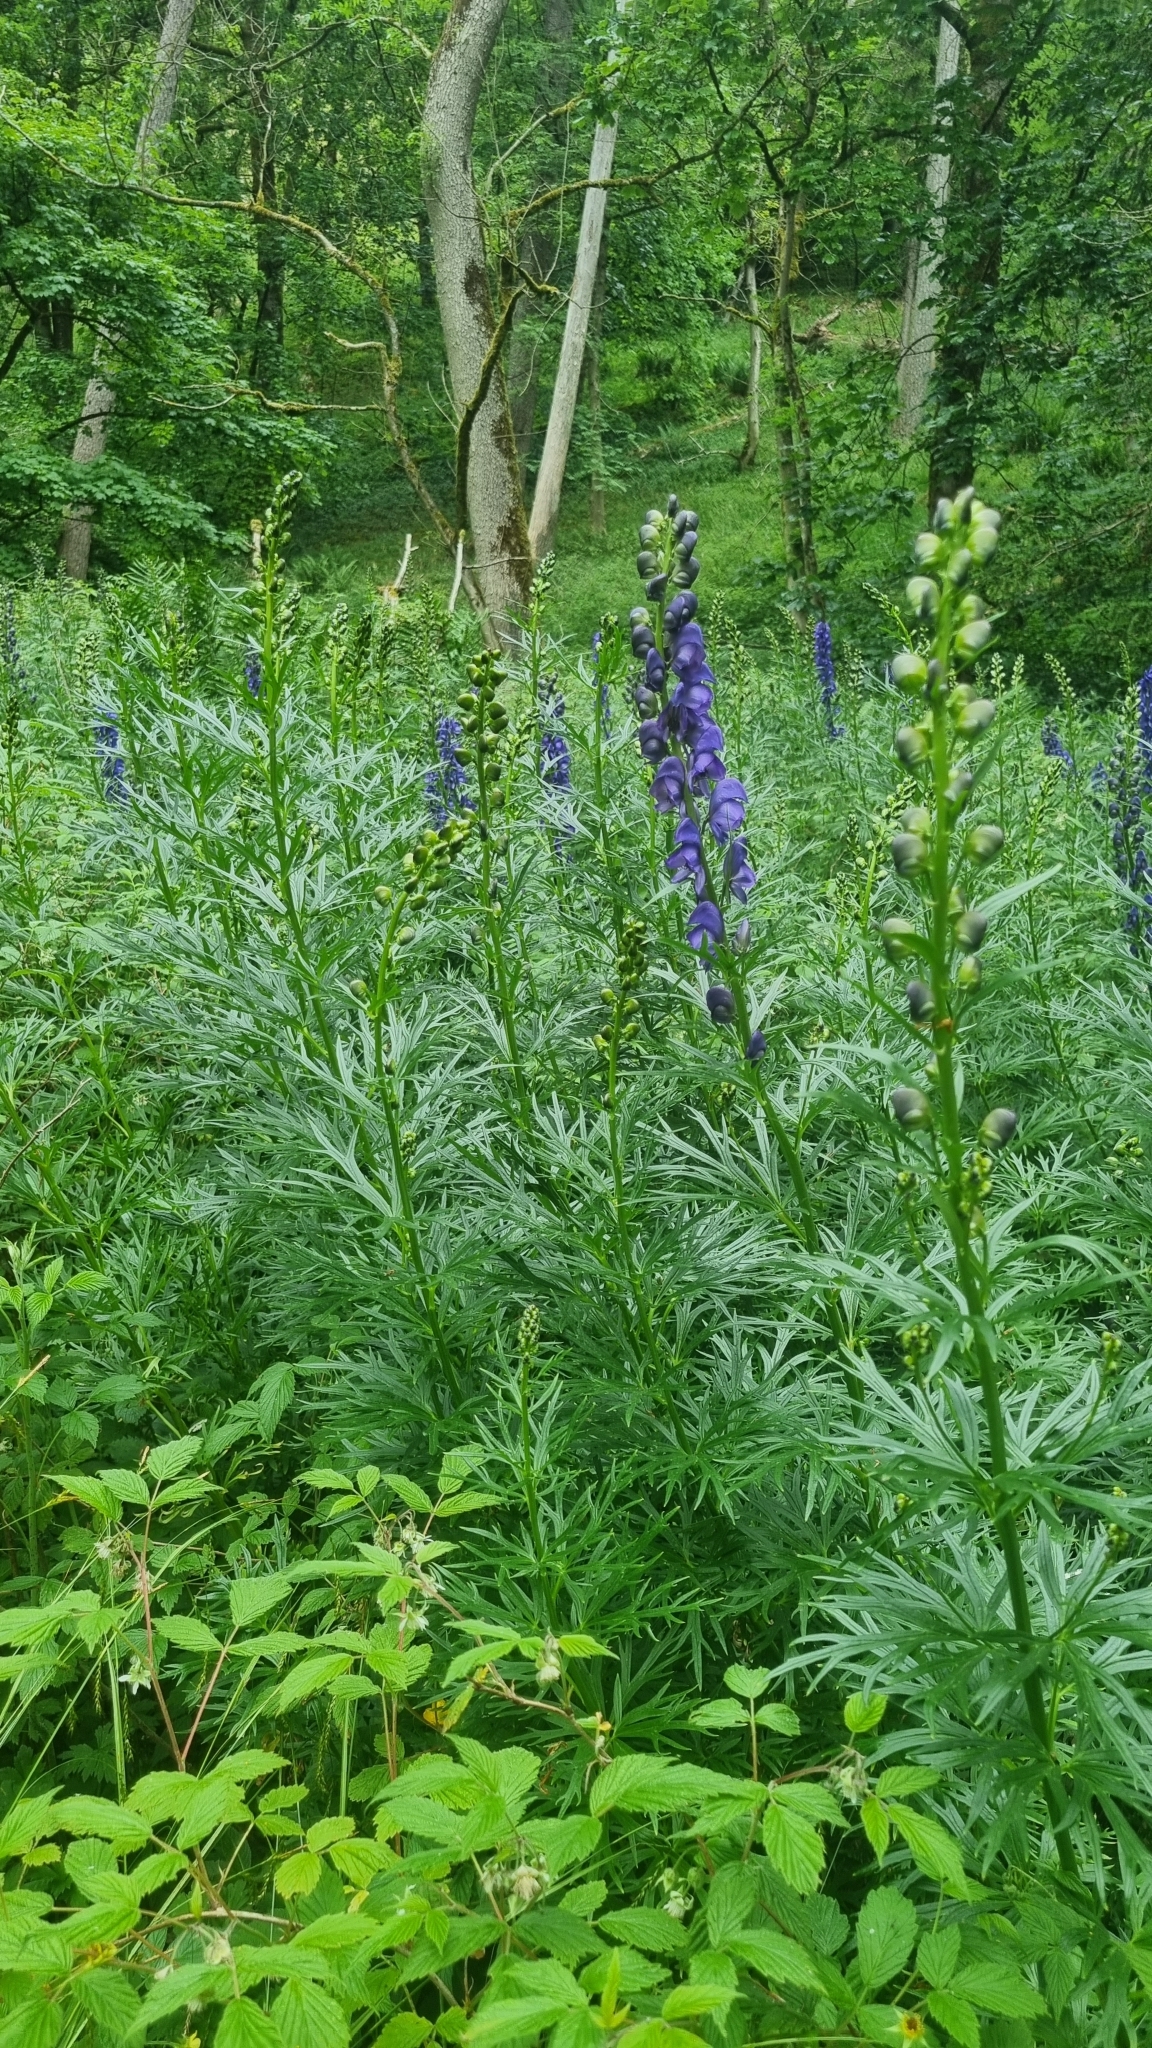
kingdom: Plantae
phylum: Tracheophyta
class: Magnoliopsida
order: Ranunculales
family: Ranunculaceae
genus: Aconitum
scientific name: Aconitum napellus
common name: Garden monkshood
